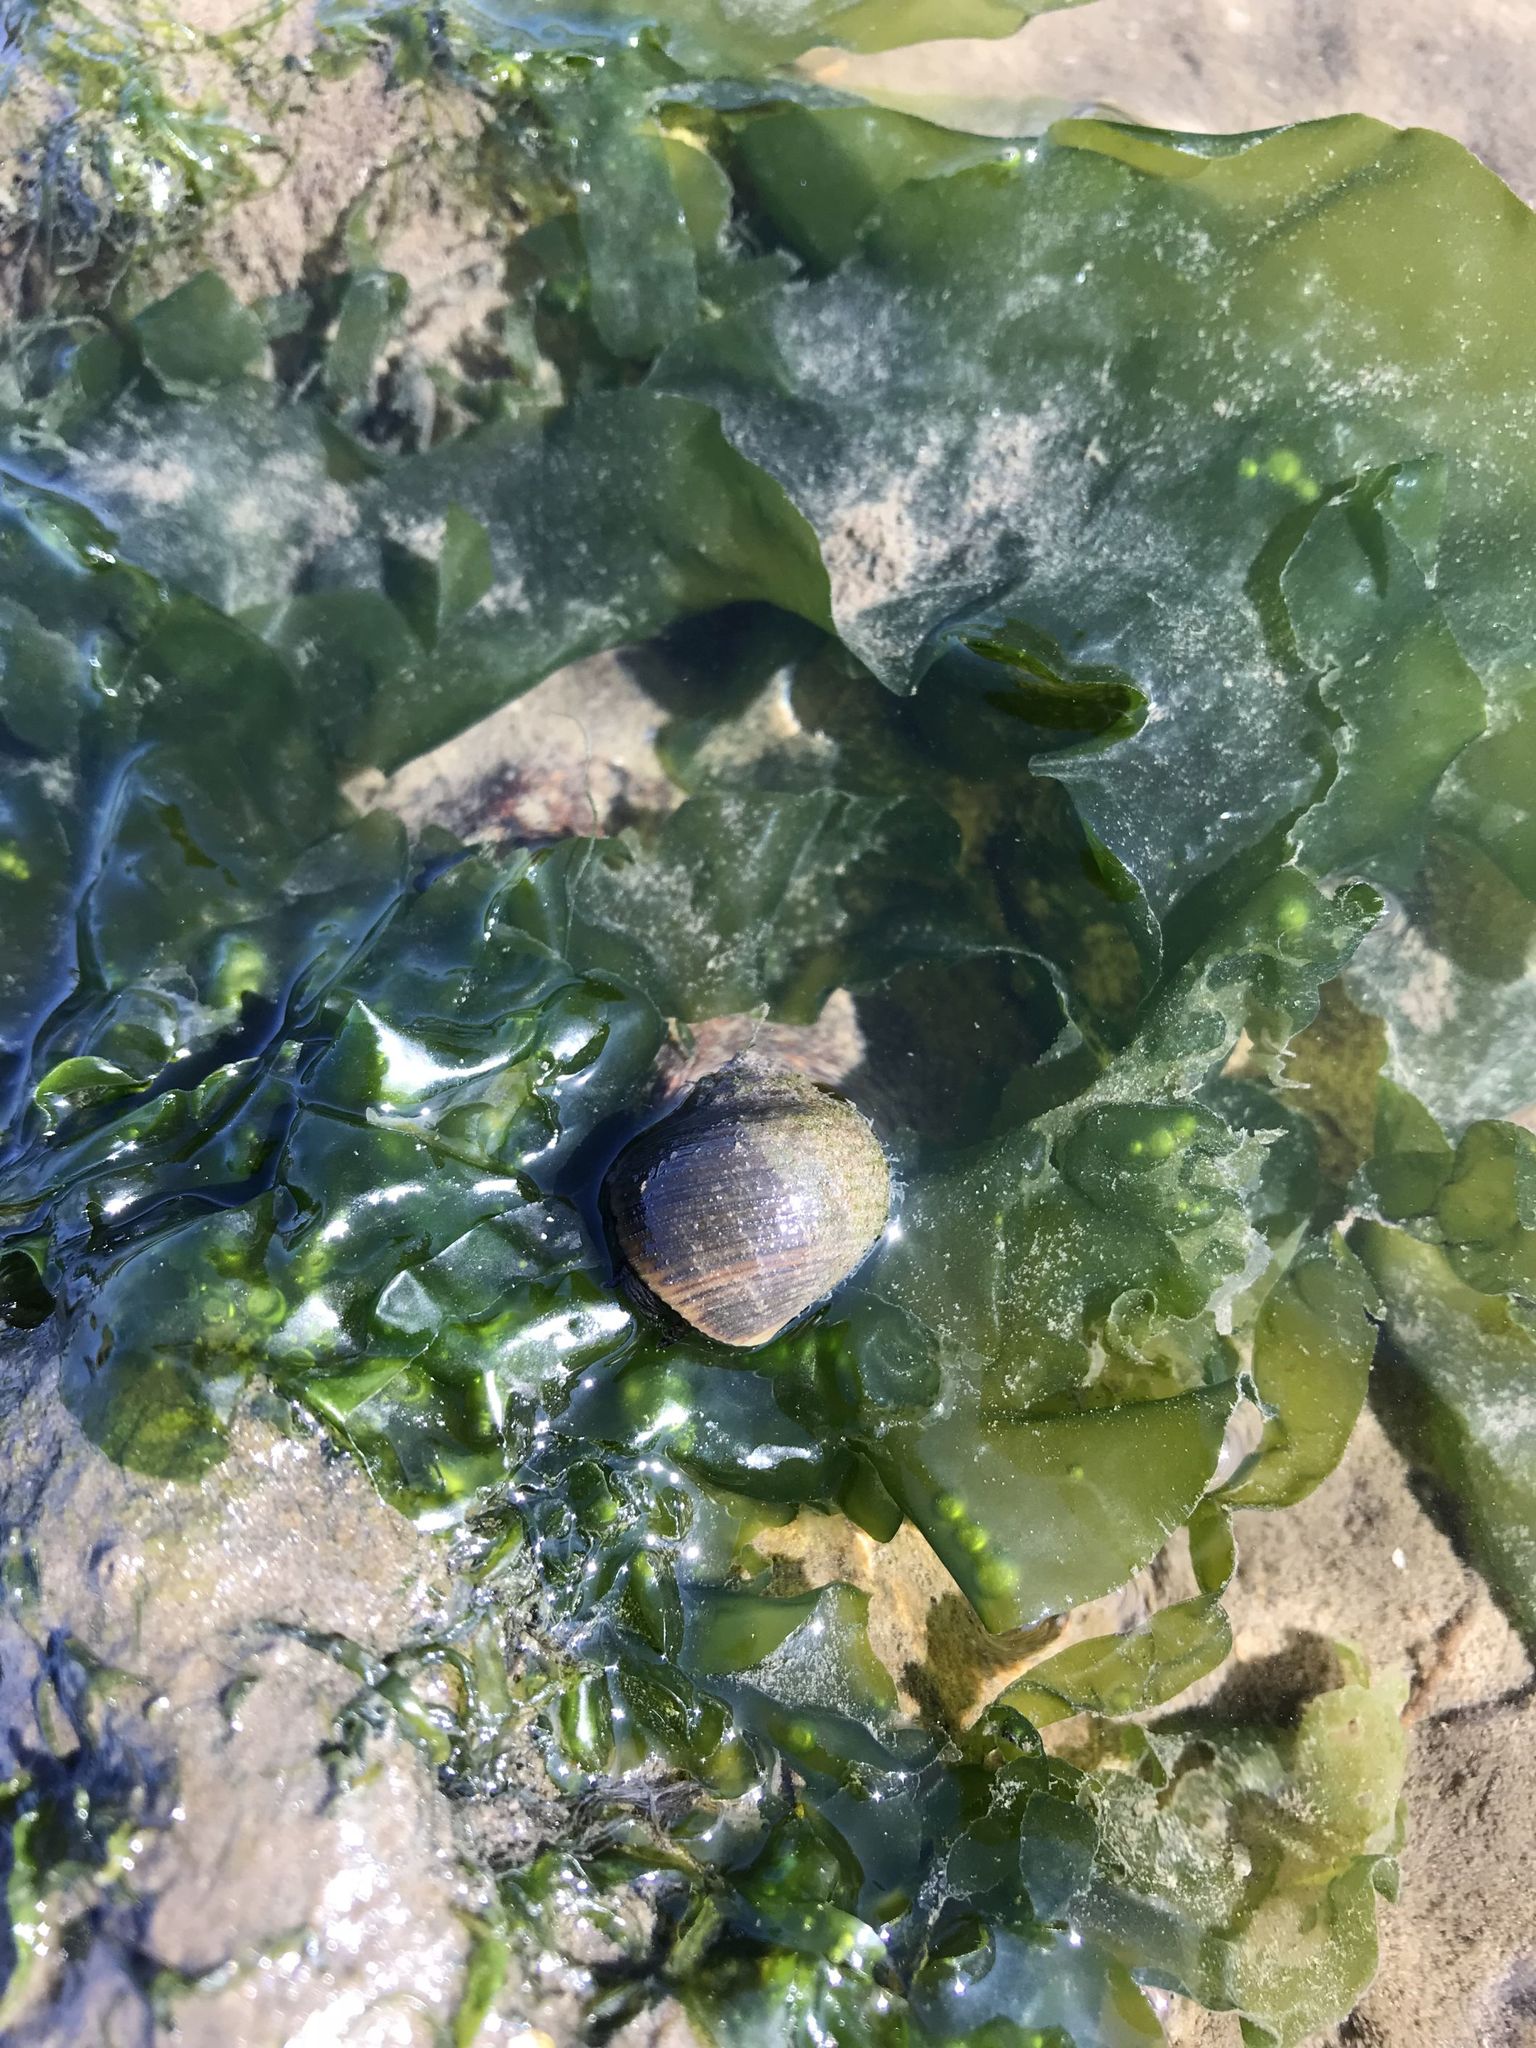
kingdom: Animalia
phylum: Mollusca
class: Gastropoda
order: Littorinimorpha
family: Littorinidae
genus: Littorina
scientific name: Littorina saxatilis
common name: Black-lined periwinkle
